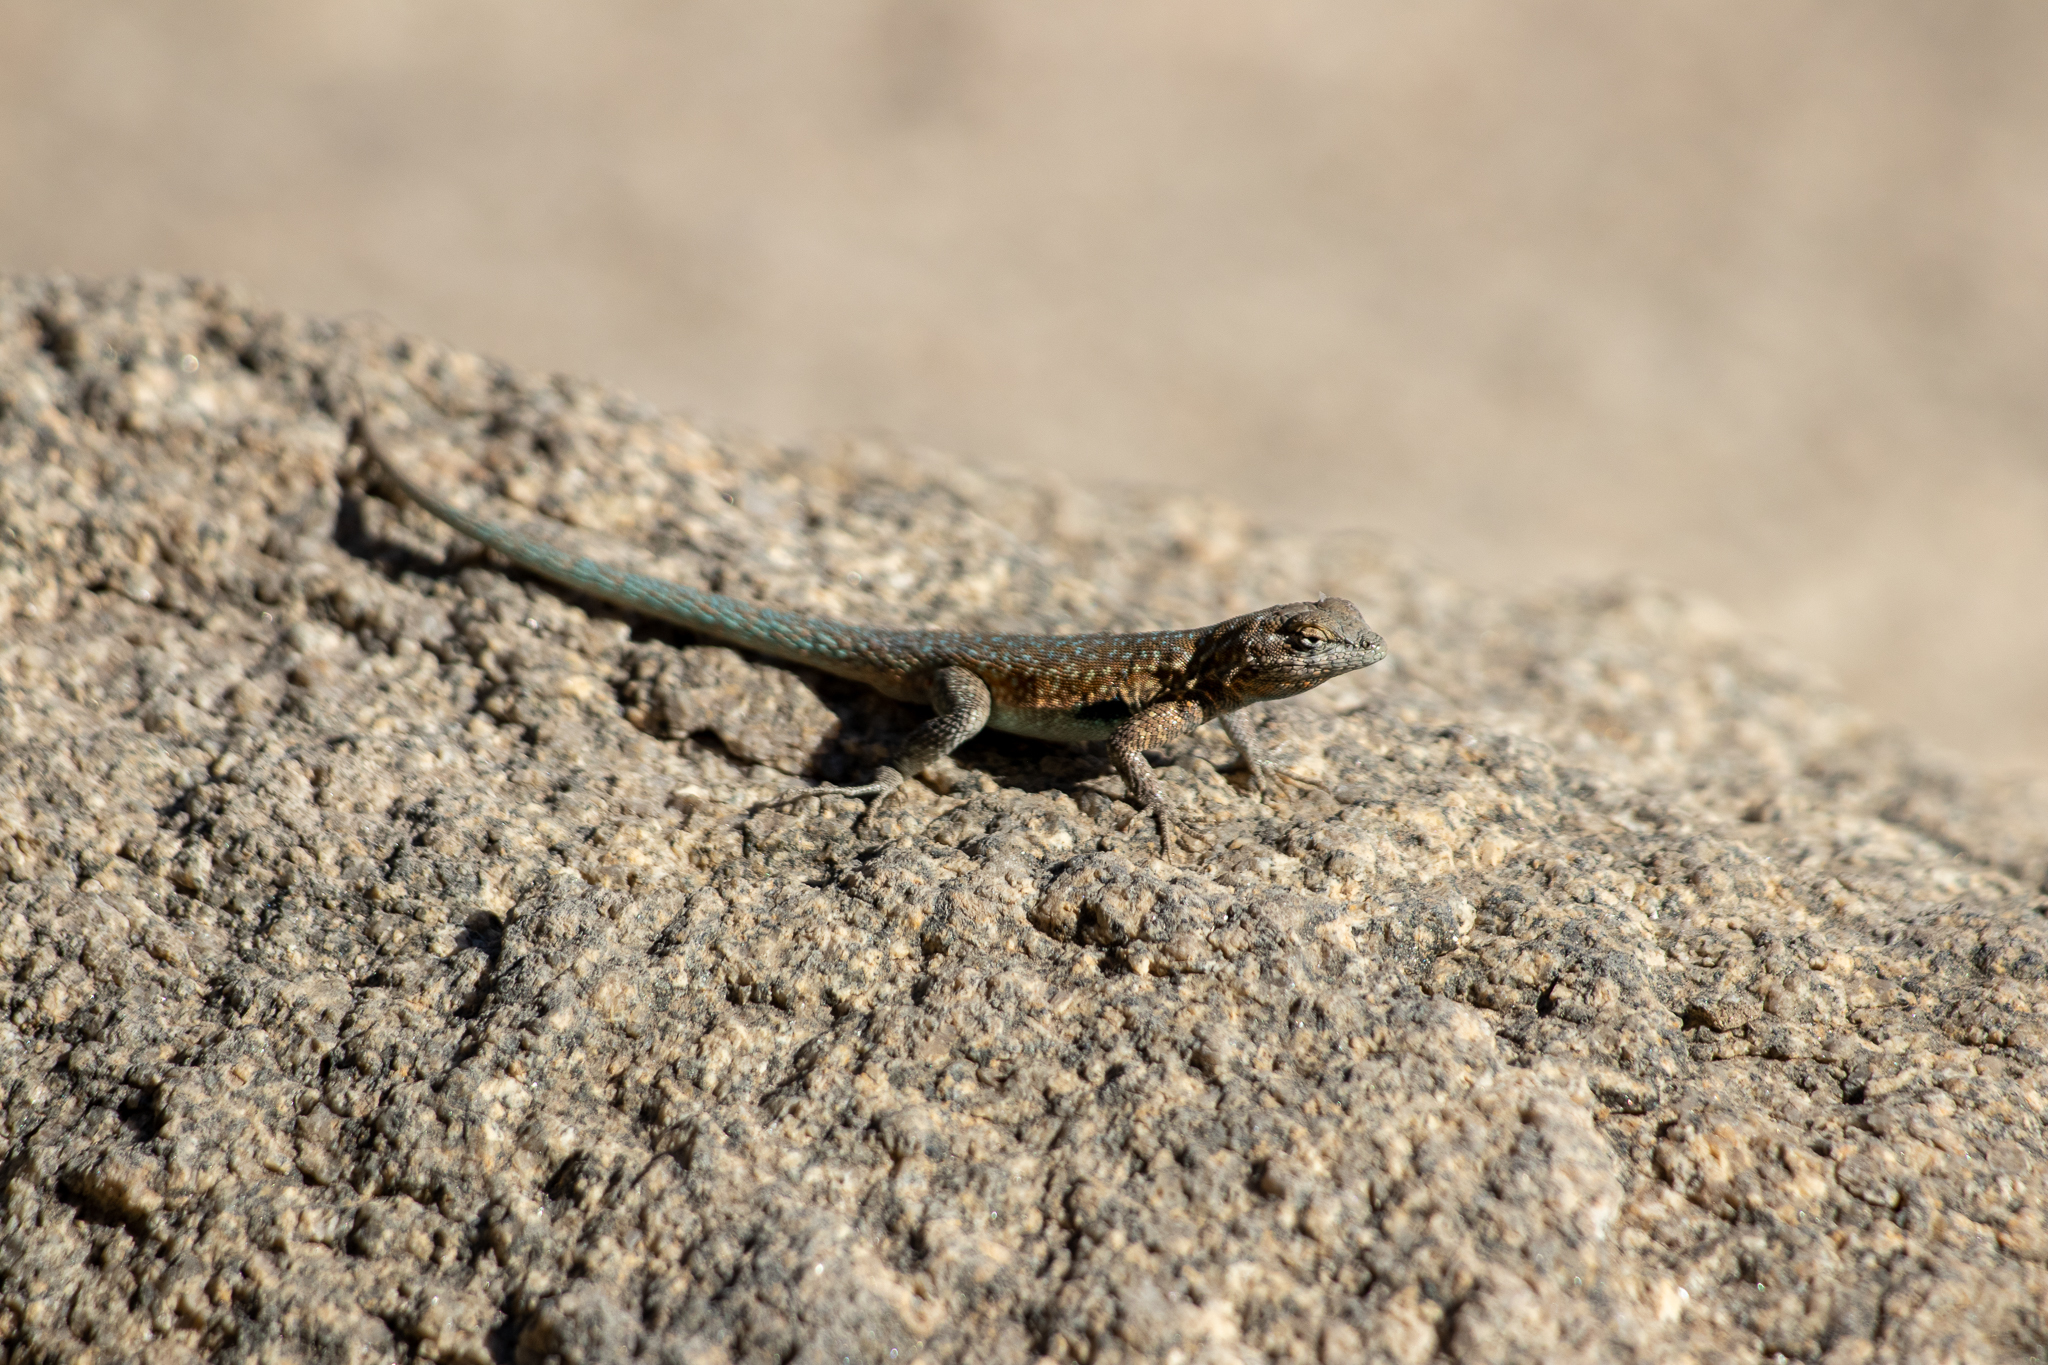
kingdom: Animalia
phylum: Chordata
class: Squamata
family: Phrynosomatidae
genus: Uta
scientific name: Uta stansburiana
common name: Side-blotched lizard
